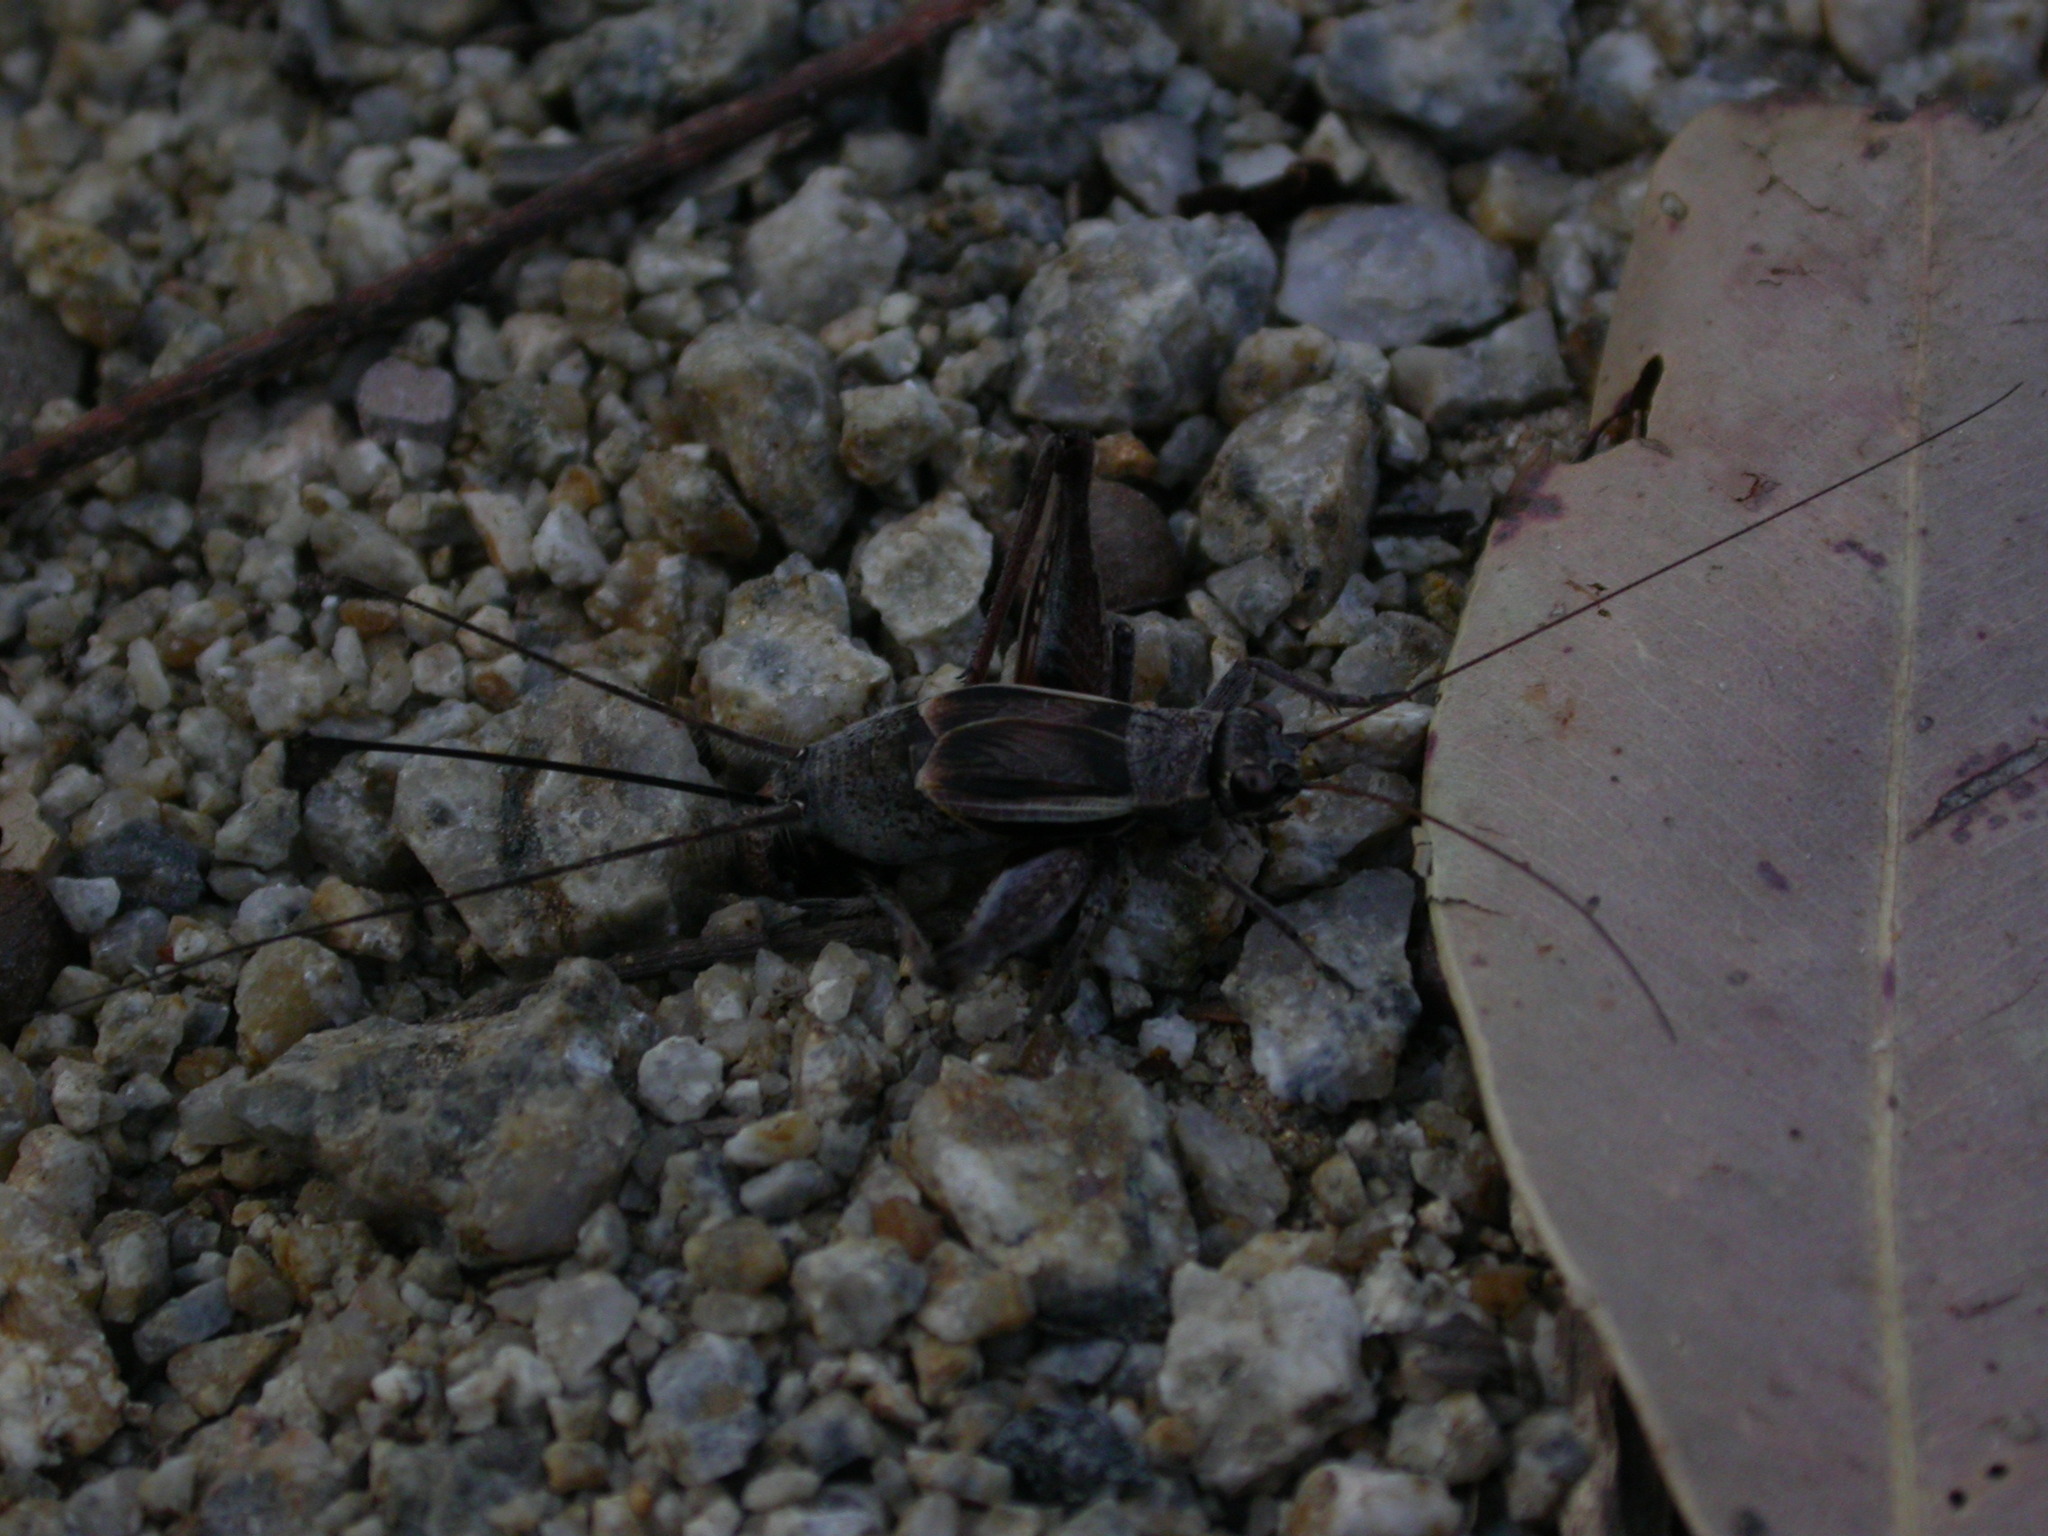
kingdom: Animalia
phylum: Arthropoda
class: Insecta
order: Orthoptera
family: Gryllidae
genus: Myara
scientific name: Myara sordida
